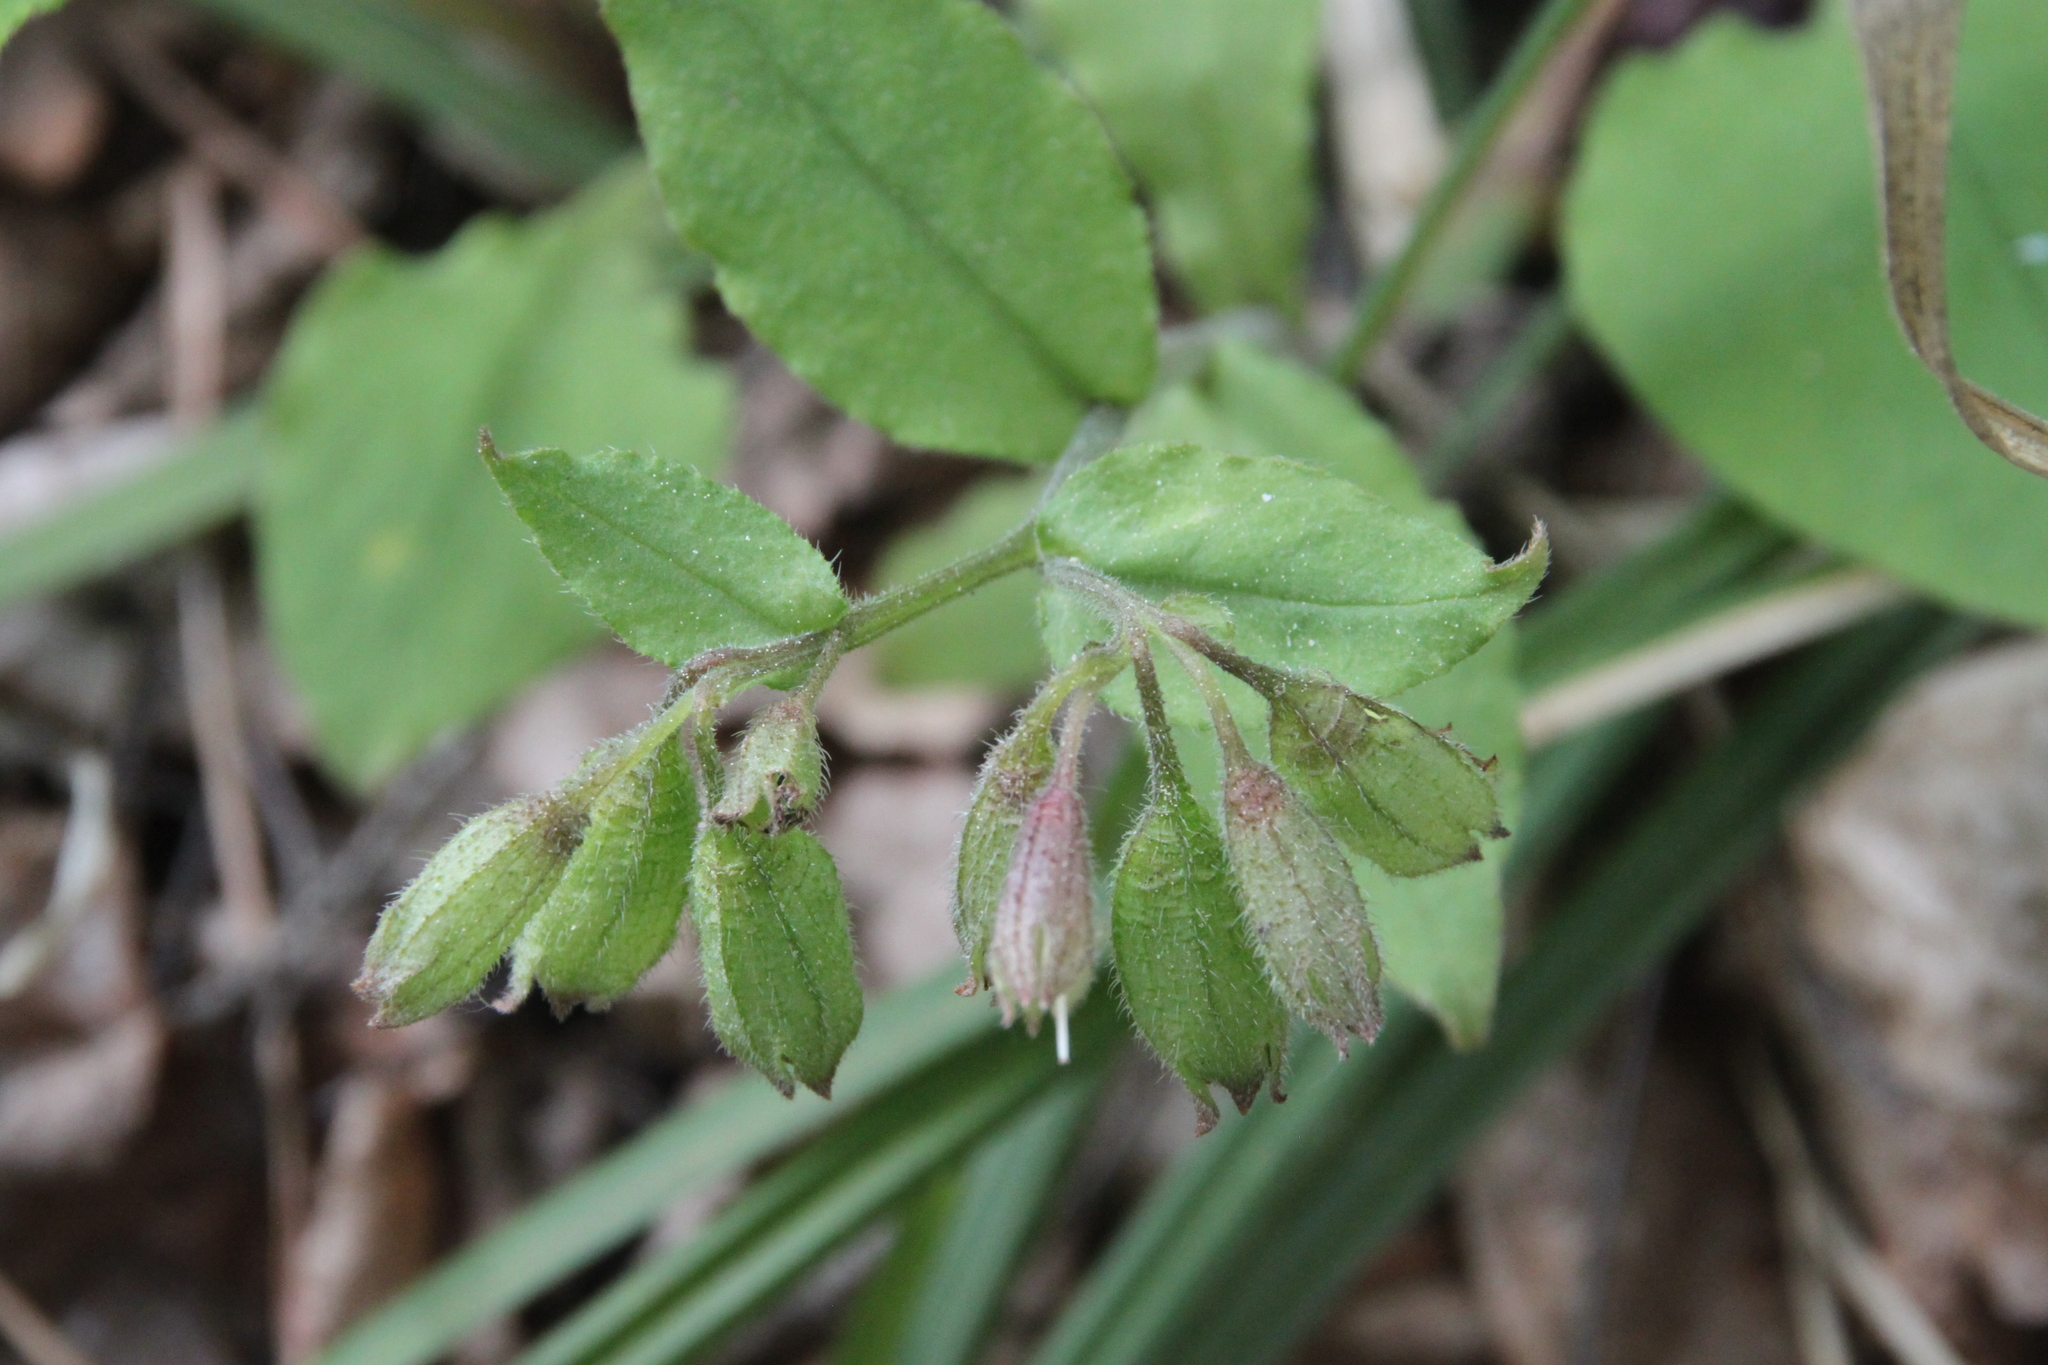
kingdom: Plantae
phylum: Tracheophyta
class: Magnoliopsida
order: Boraginales
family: Boraginaceae
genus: Pulmonaria
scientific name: Pulmonaria obscura
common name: Suffolk lungwort
